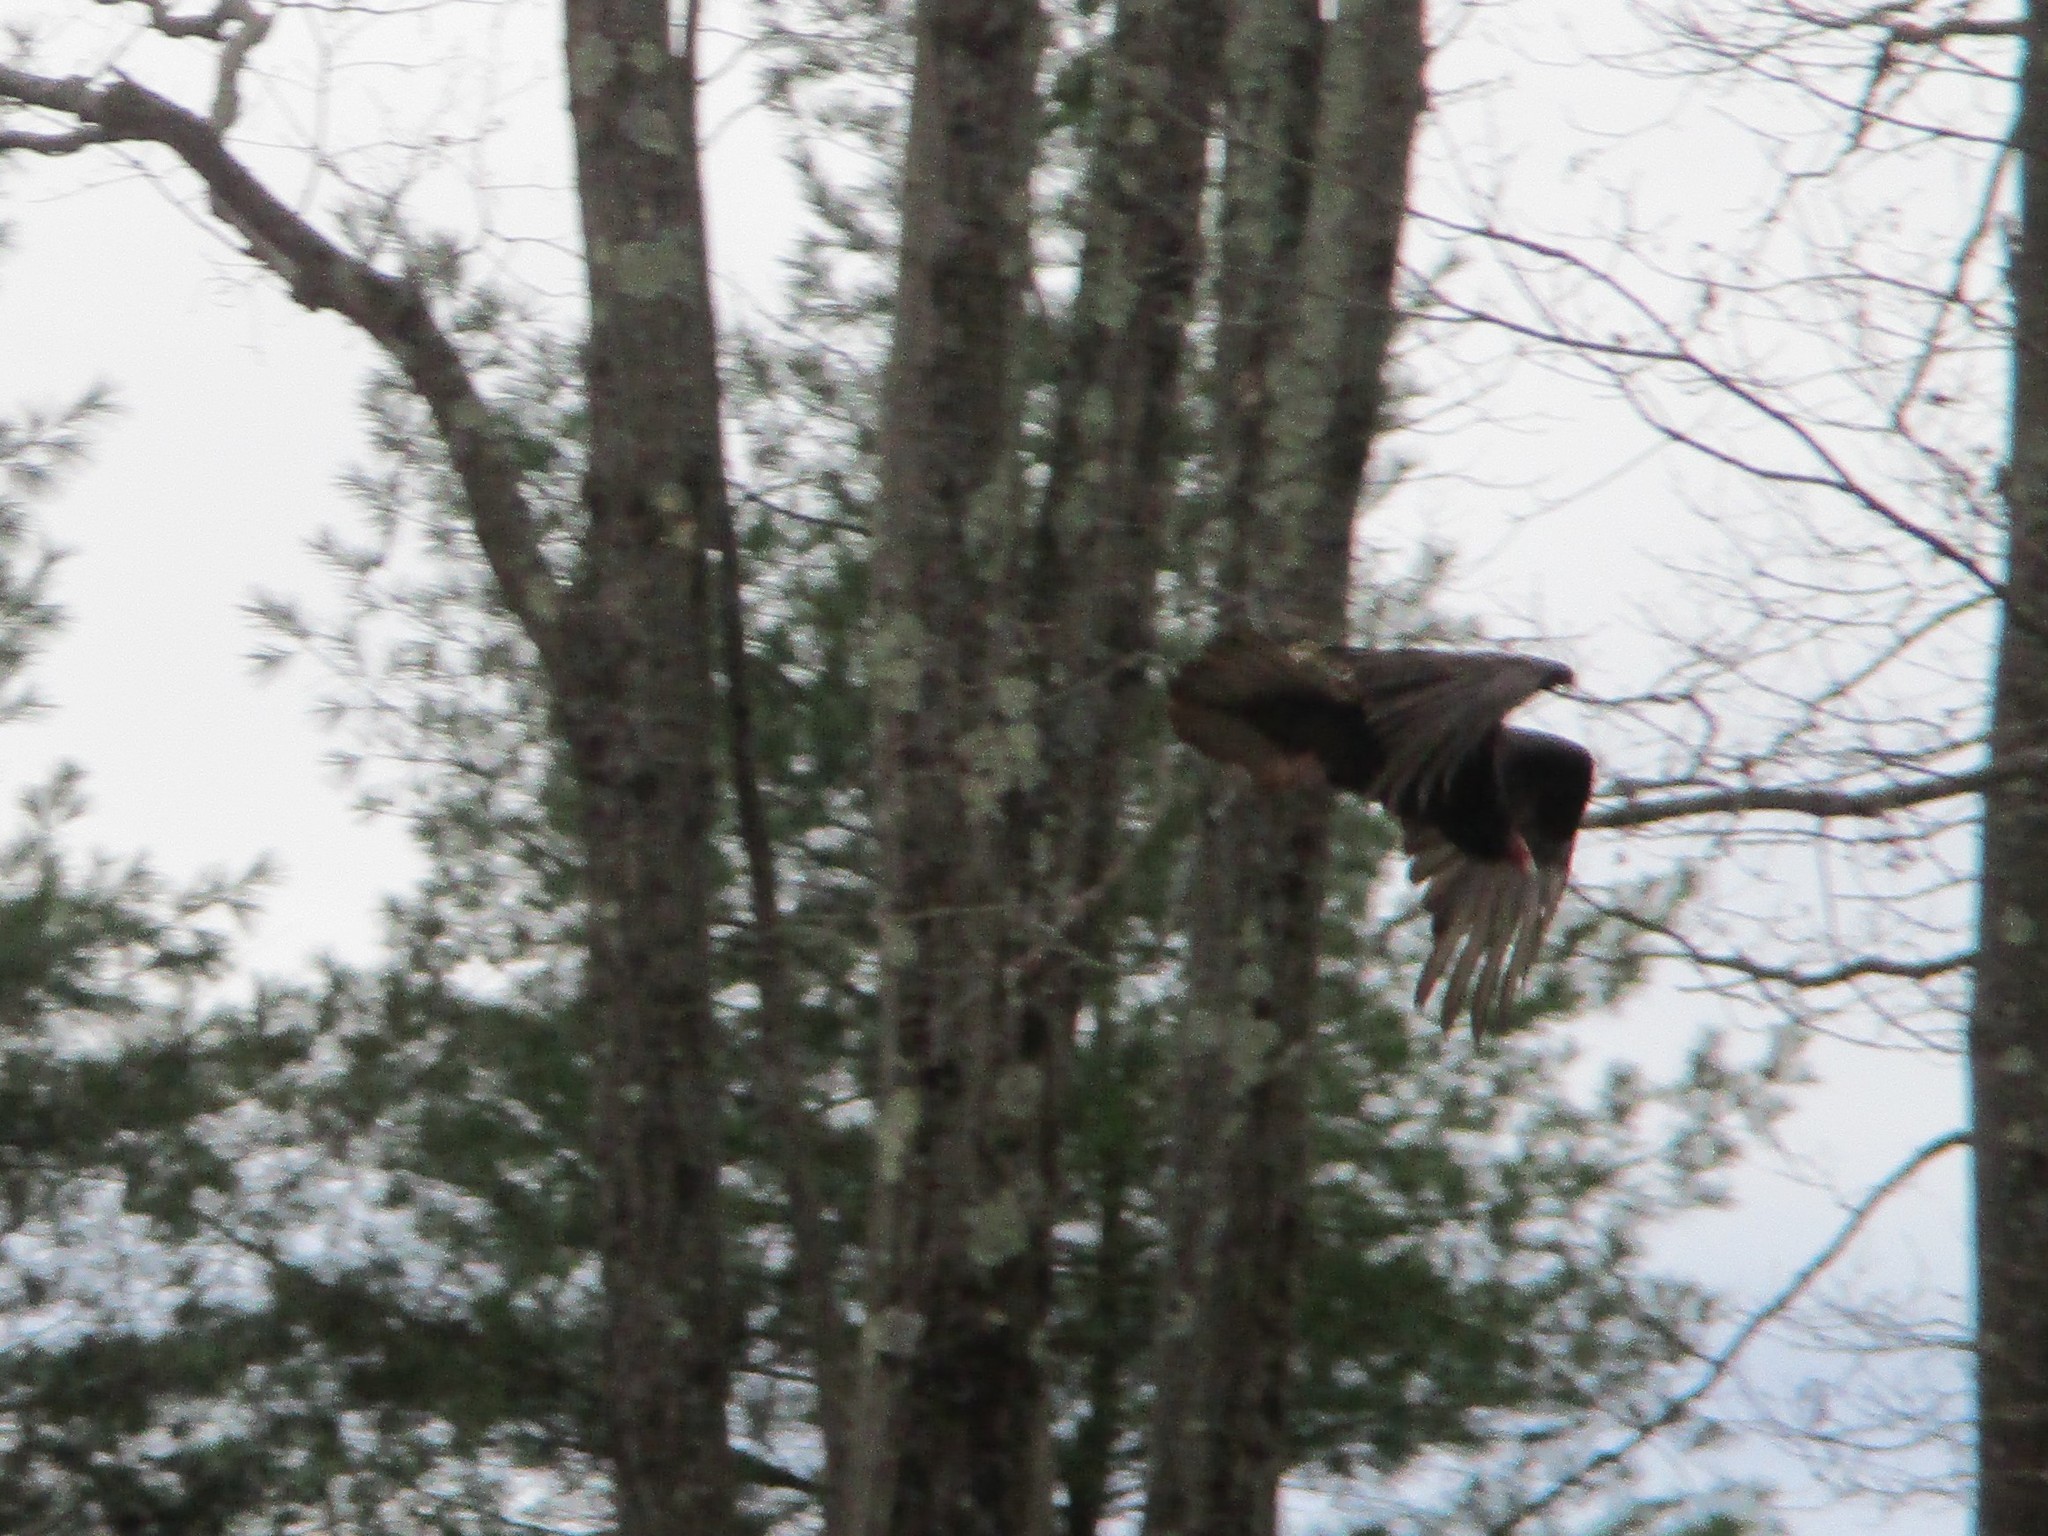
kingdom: Animalia
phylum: Chordata
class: Aves
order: Accipitriformes
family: Cathartidae
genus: Cathartes
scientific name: Cathartes aura
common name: Turkey vulture
